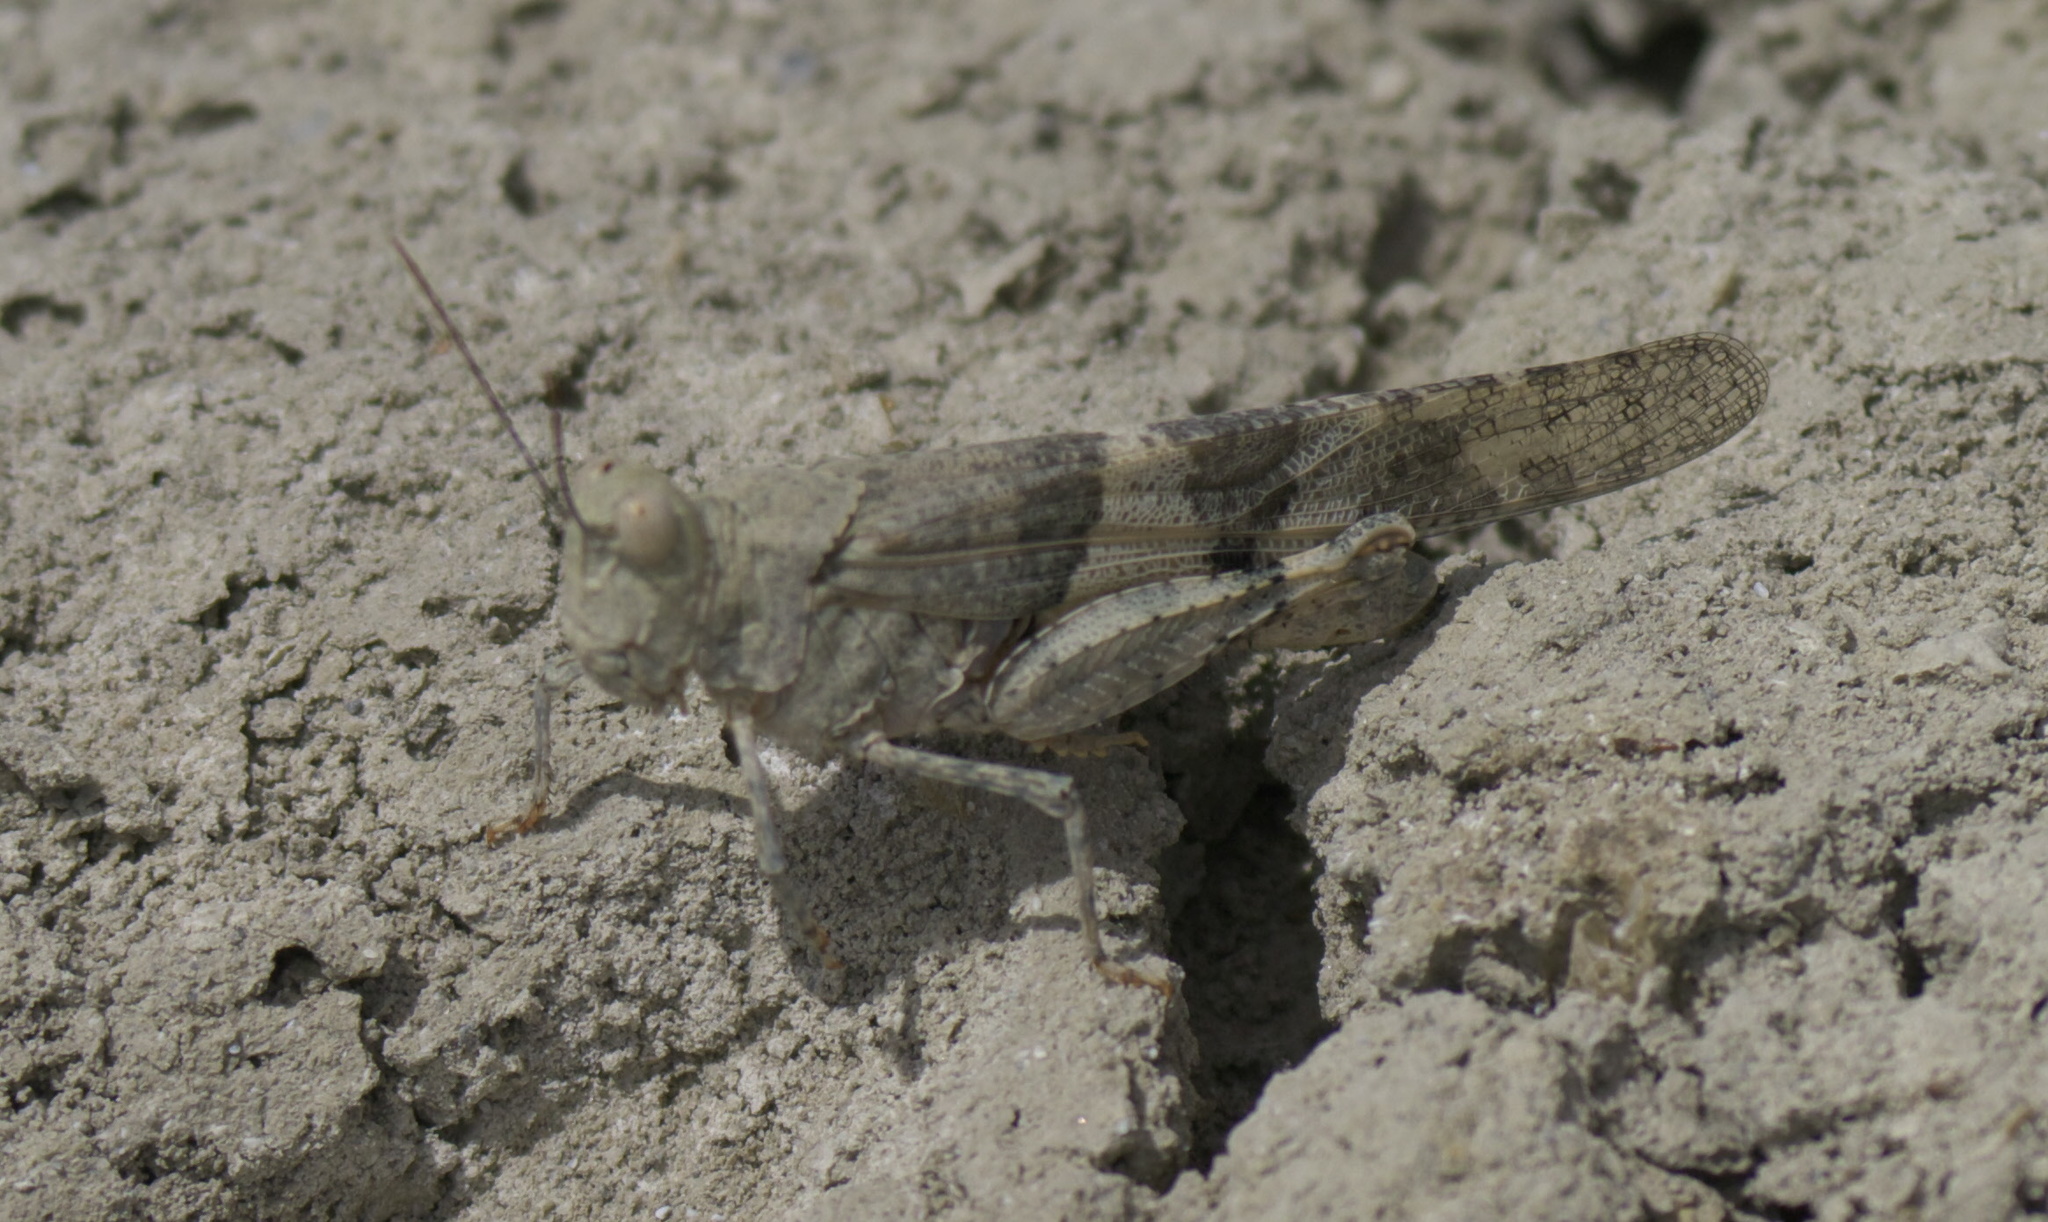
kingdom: Animalia
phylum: Arthropoda
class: Insecta
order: Orthoptera
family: Acrididae
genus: Trimerotropis
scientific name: Trimerotropis pallidipennis
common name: Pallid-winged grasshopper
